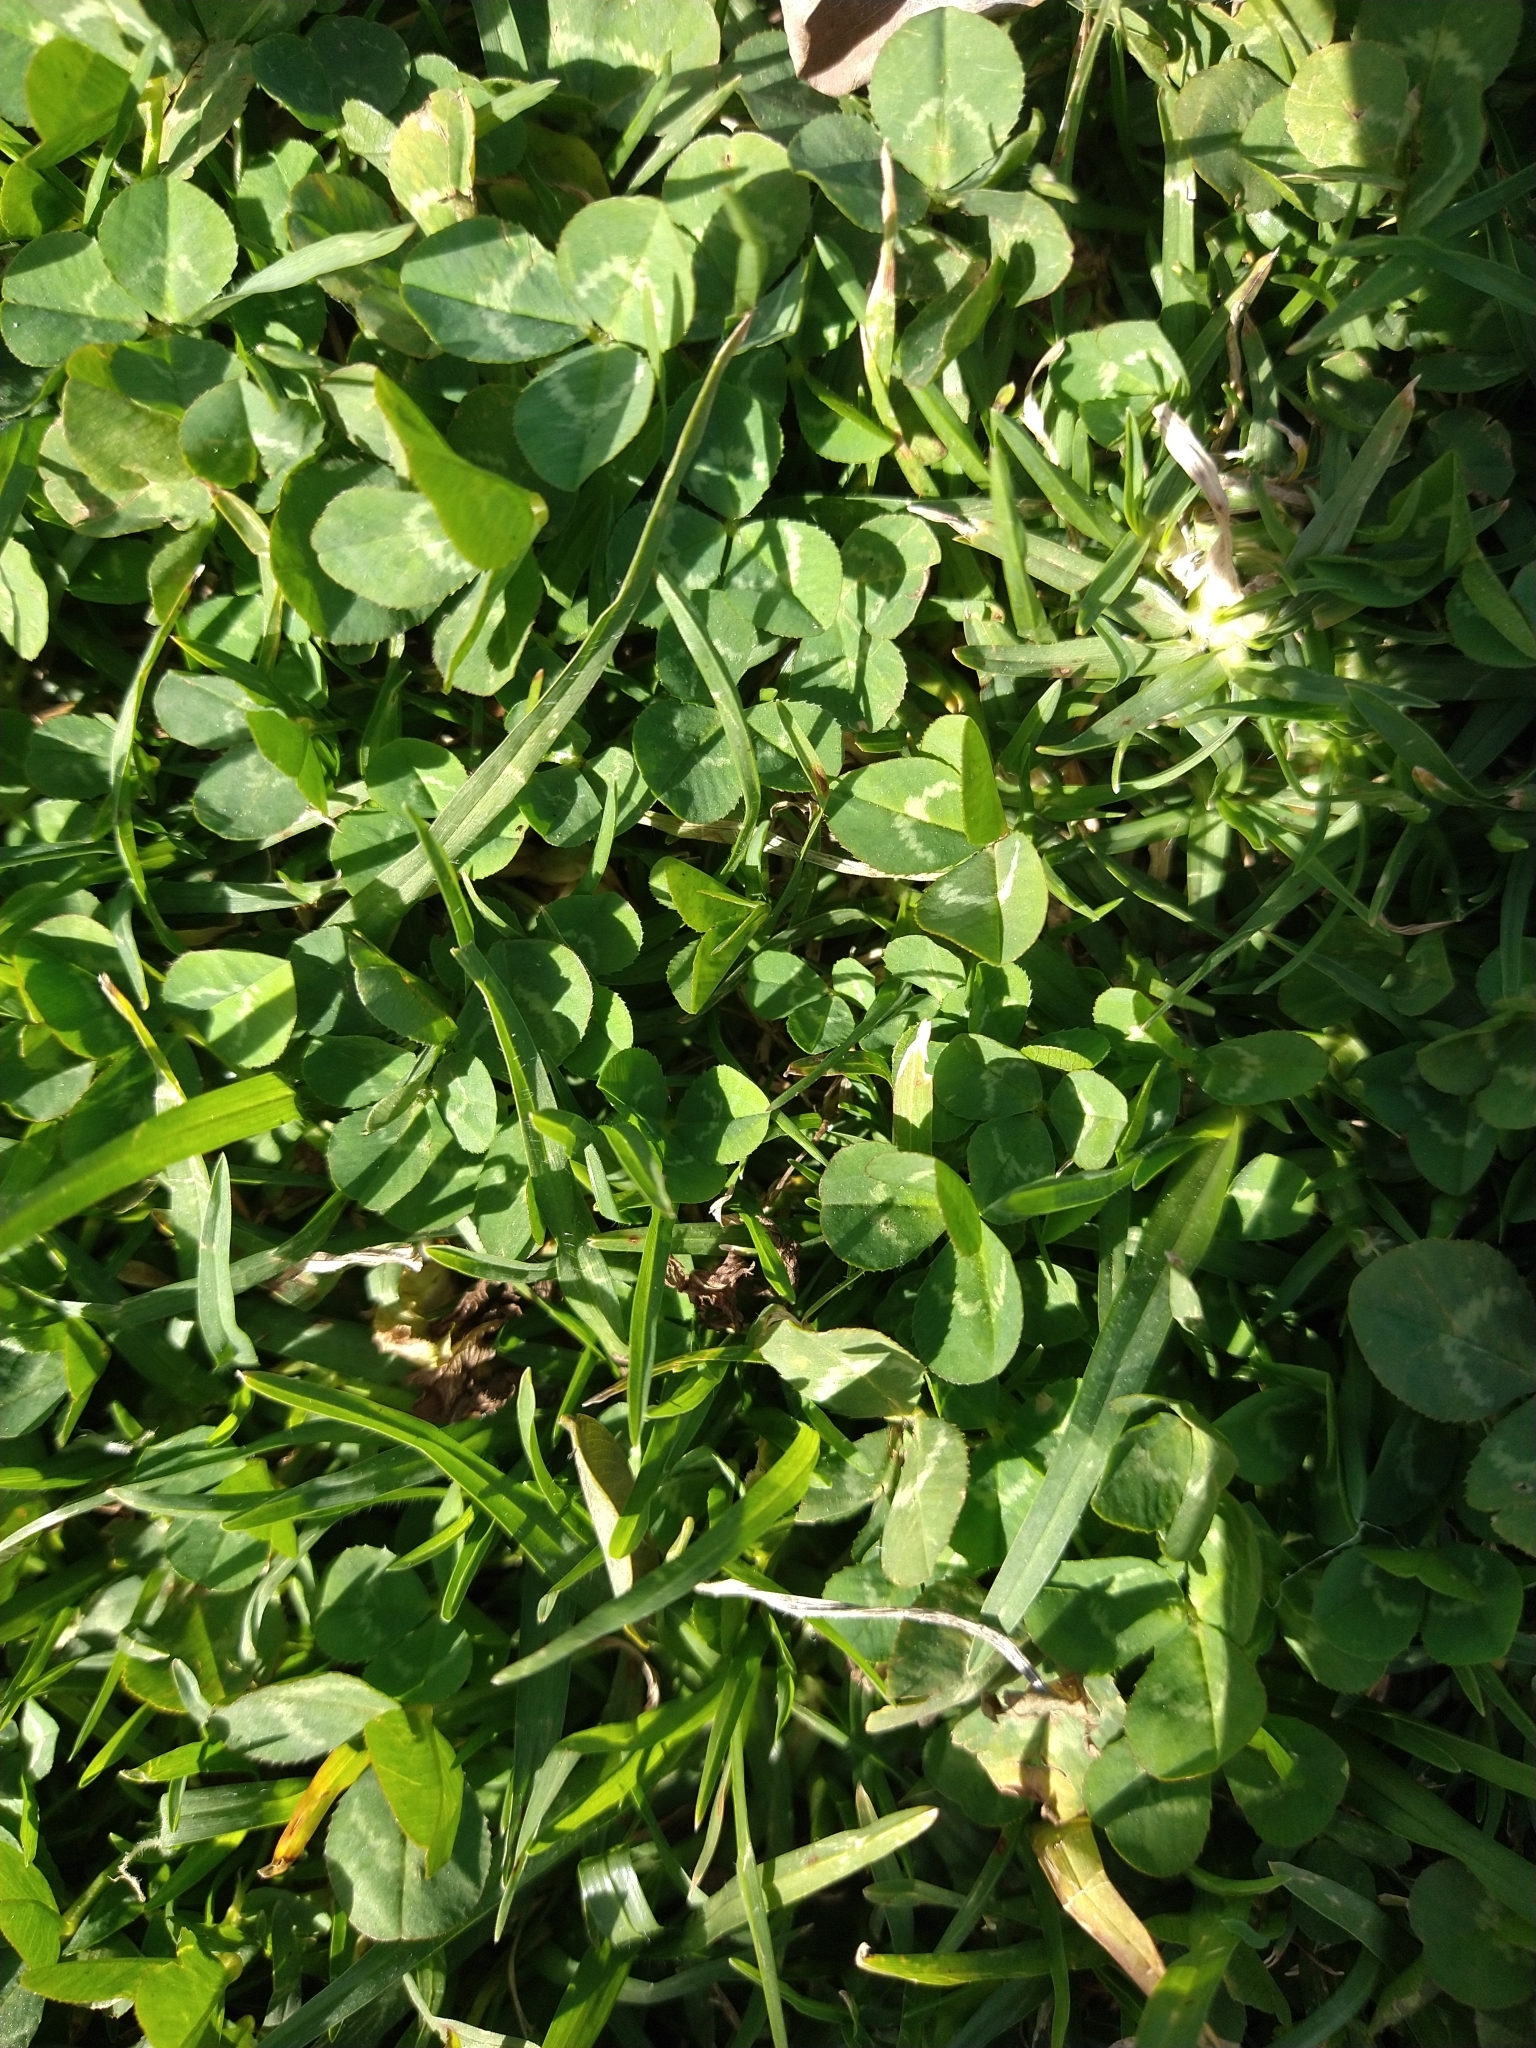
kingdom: Plantae
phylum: Tracheophyta
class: Magnoliopsida
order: Fabales
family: Fabaceae
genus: Trifolium
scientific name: Trifolium repens
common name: White clover
